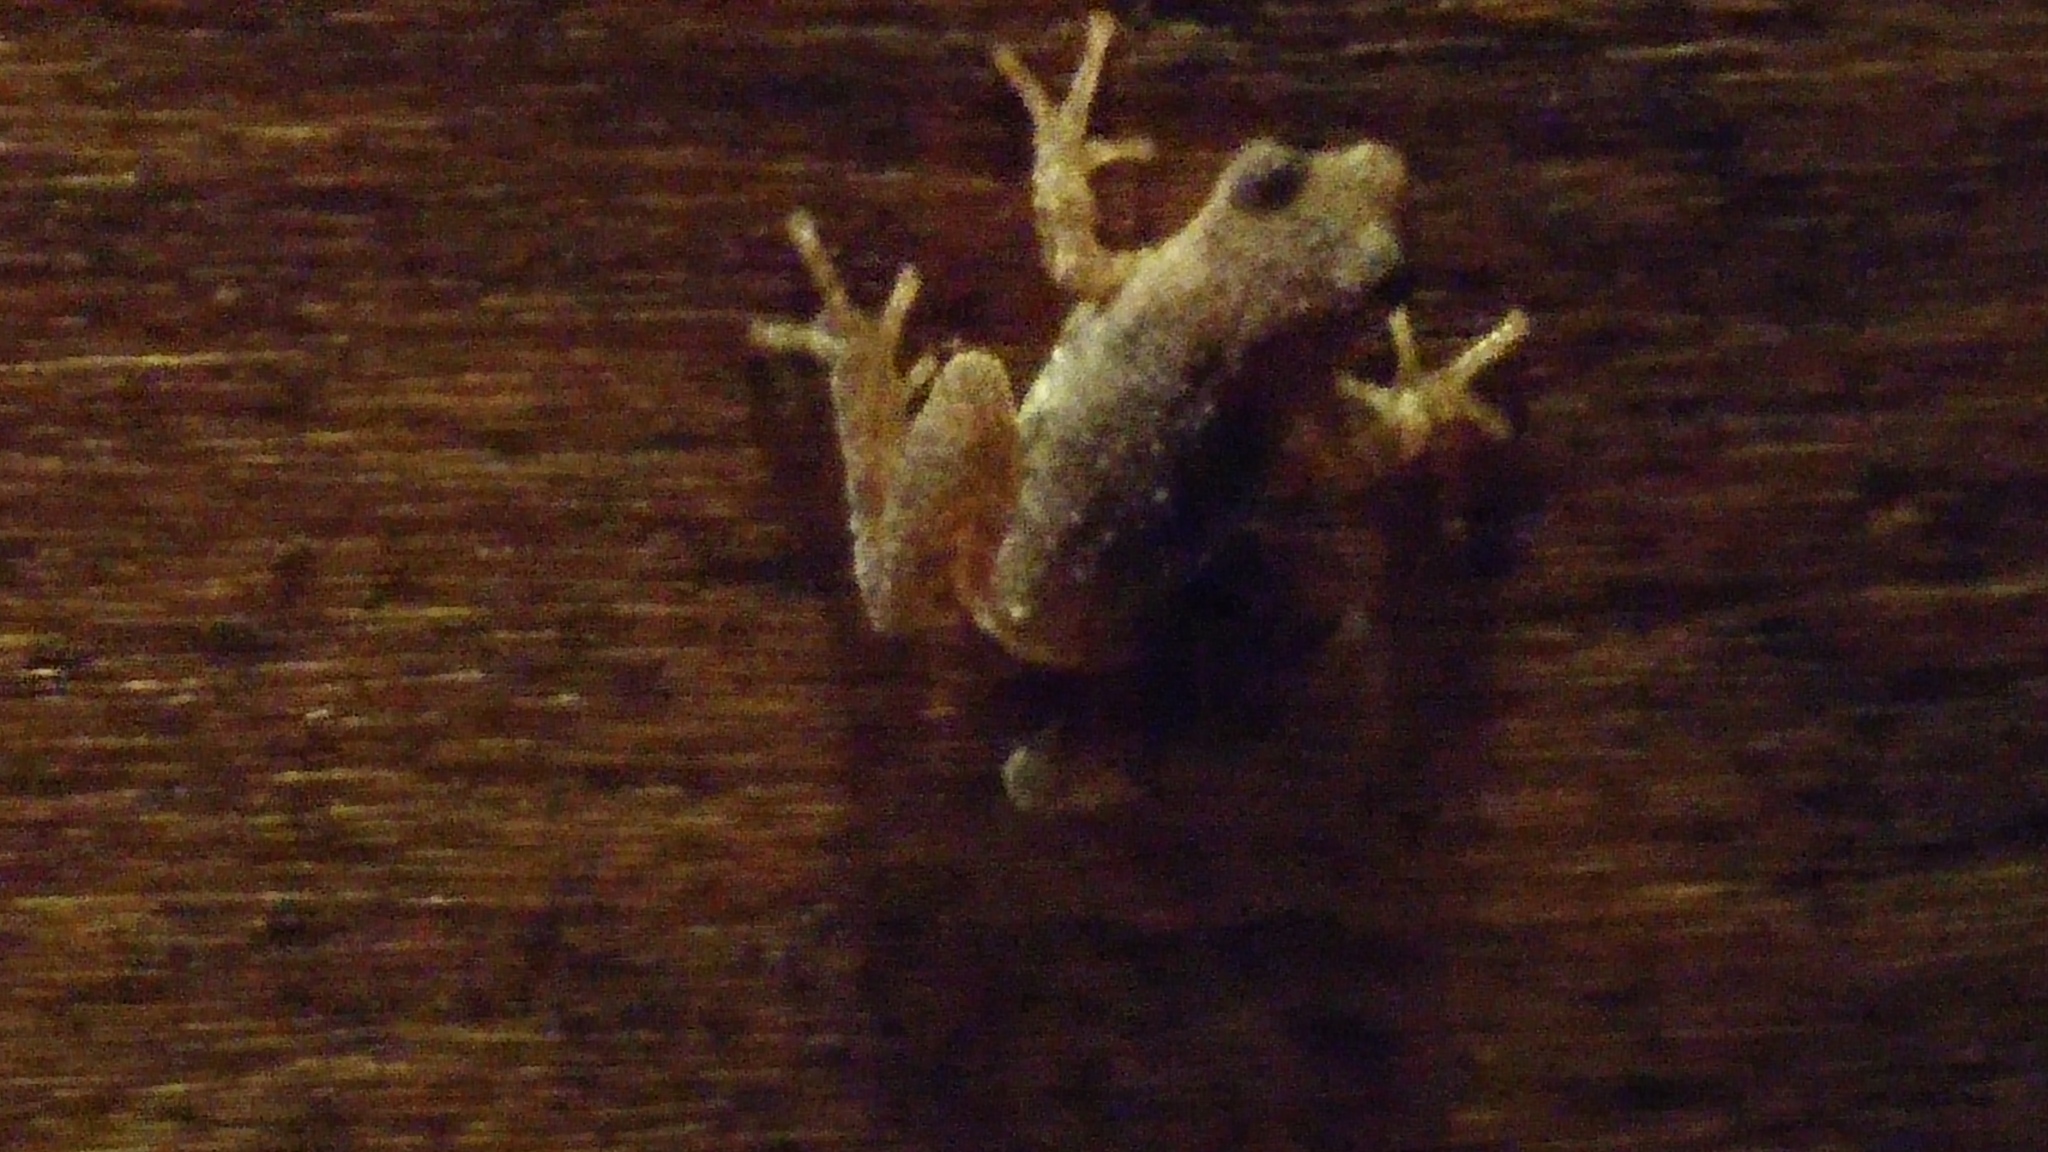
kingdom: Animalia
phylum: Chordata
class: Amphibia
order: Anura
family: Hylidae
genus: Pseudacris
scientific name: Pseudacris crucifer
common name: Spring peeper
